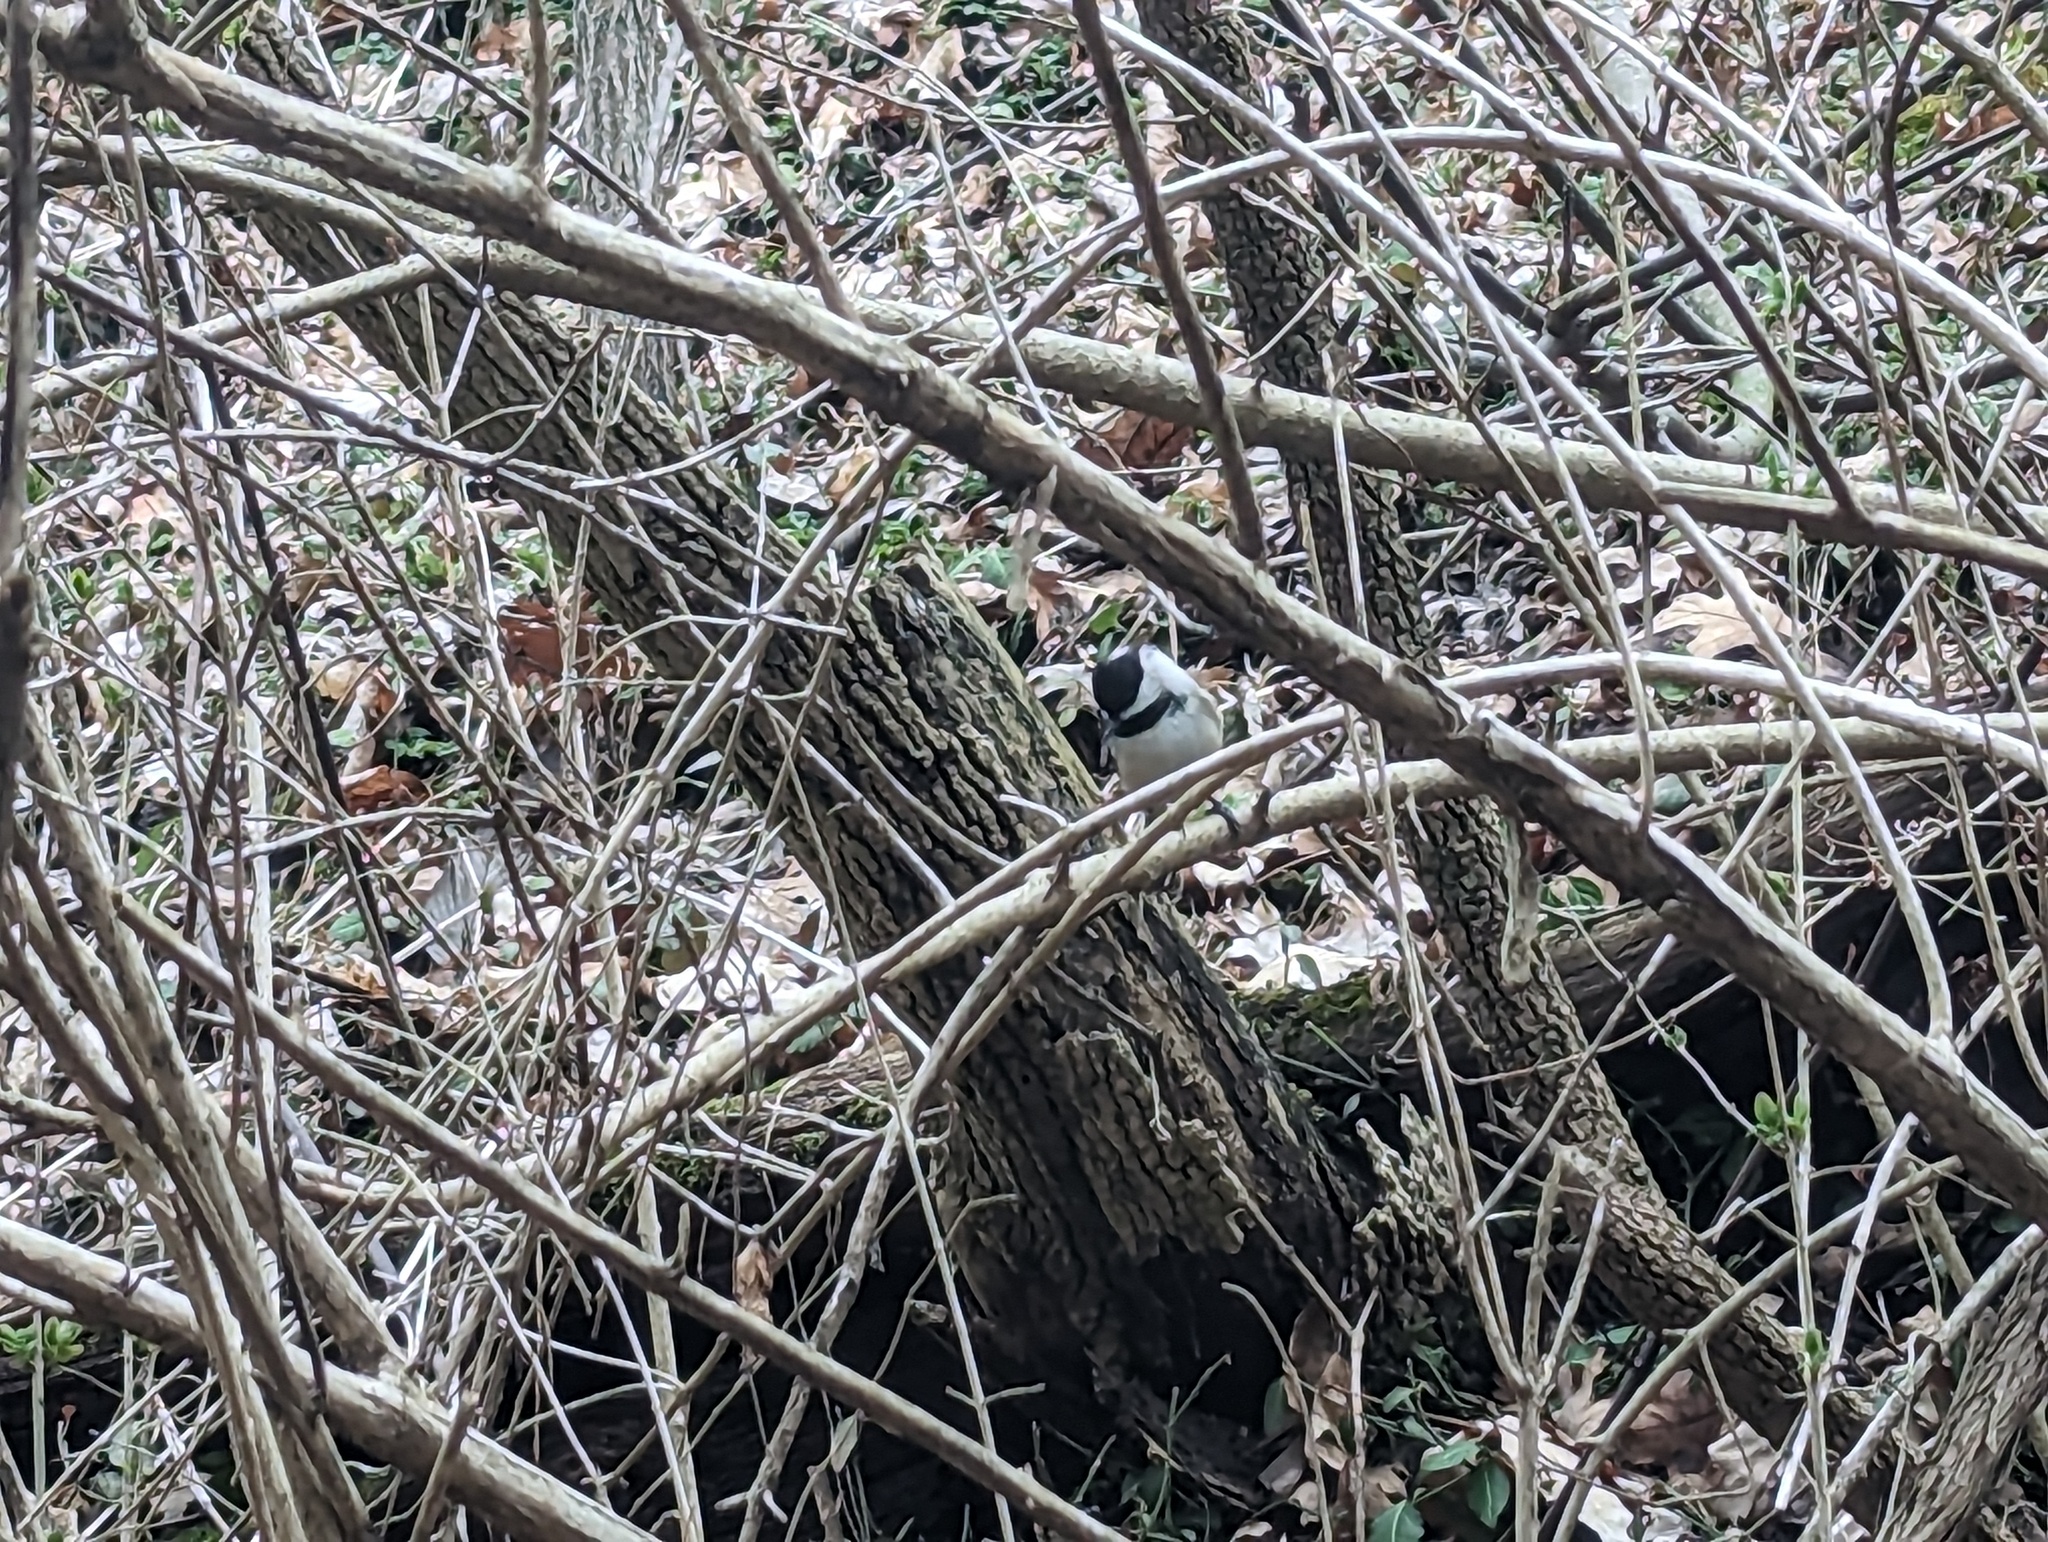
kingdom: Animalia
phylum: Chordata
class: Aves
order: Passeriformes
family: Paridae
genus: Poecile
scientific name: Poecile atricapillus
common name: Black-capped chickadee
